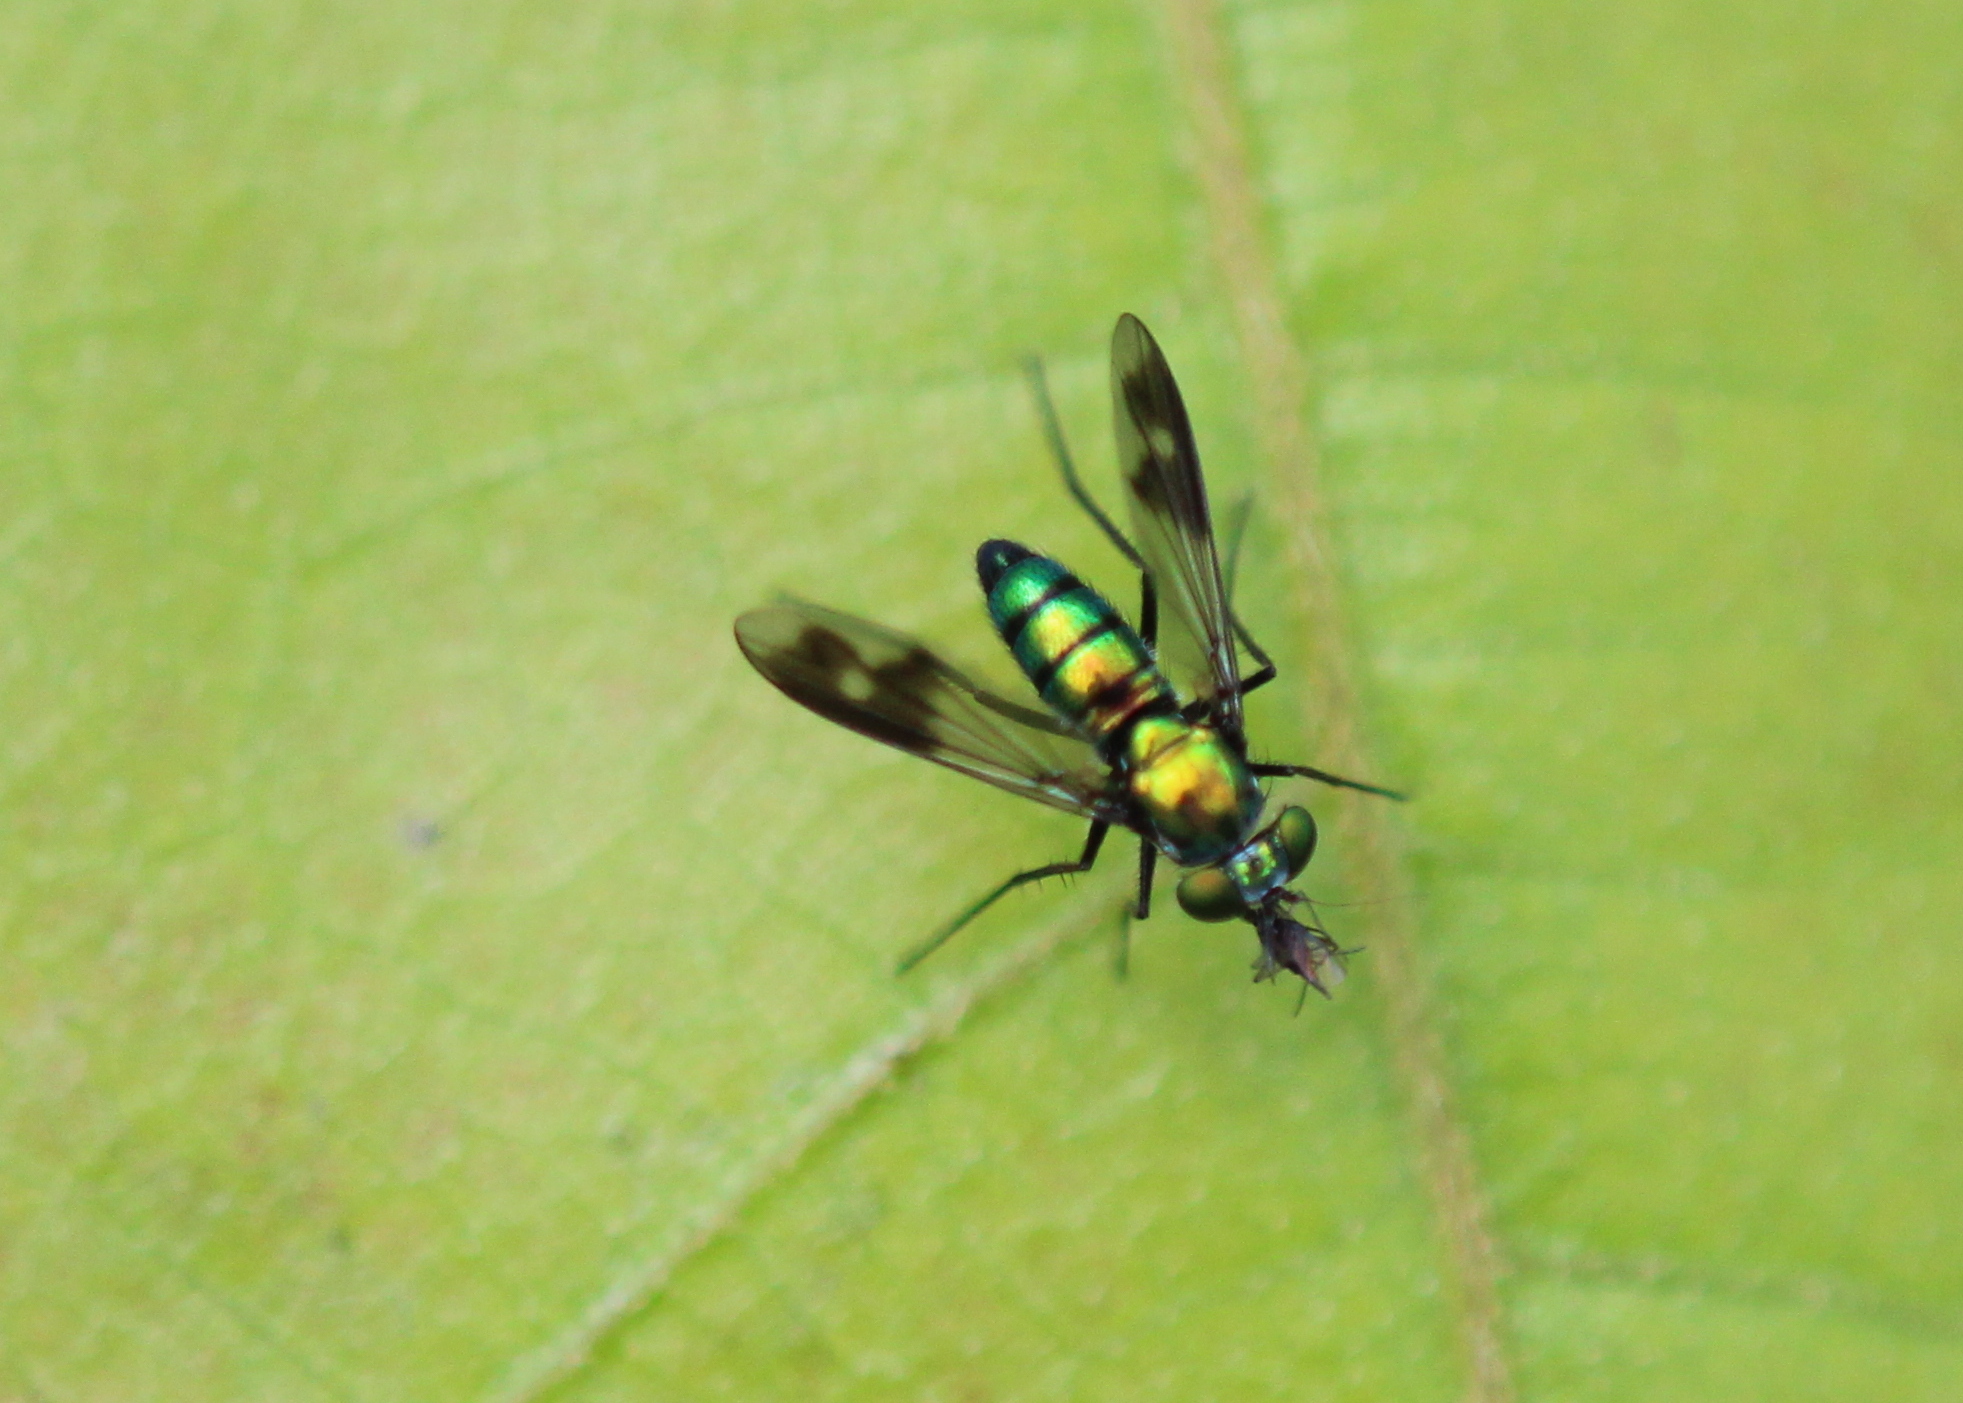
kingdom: Animalia
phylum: Arthropoda
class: Insecta
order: Diptera
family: Dolichopodidae
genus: Condylostylus
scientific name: Condylostylus patibulatus
